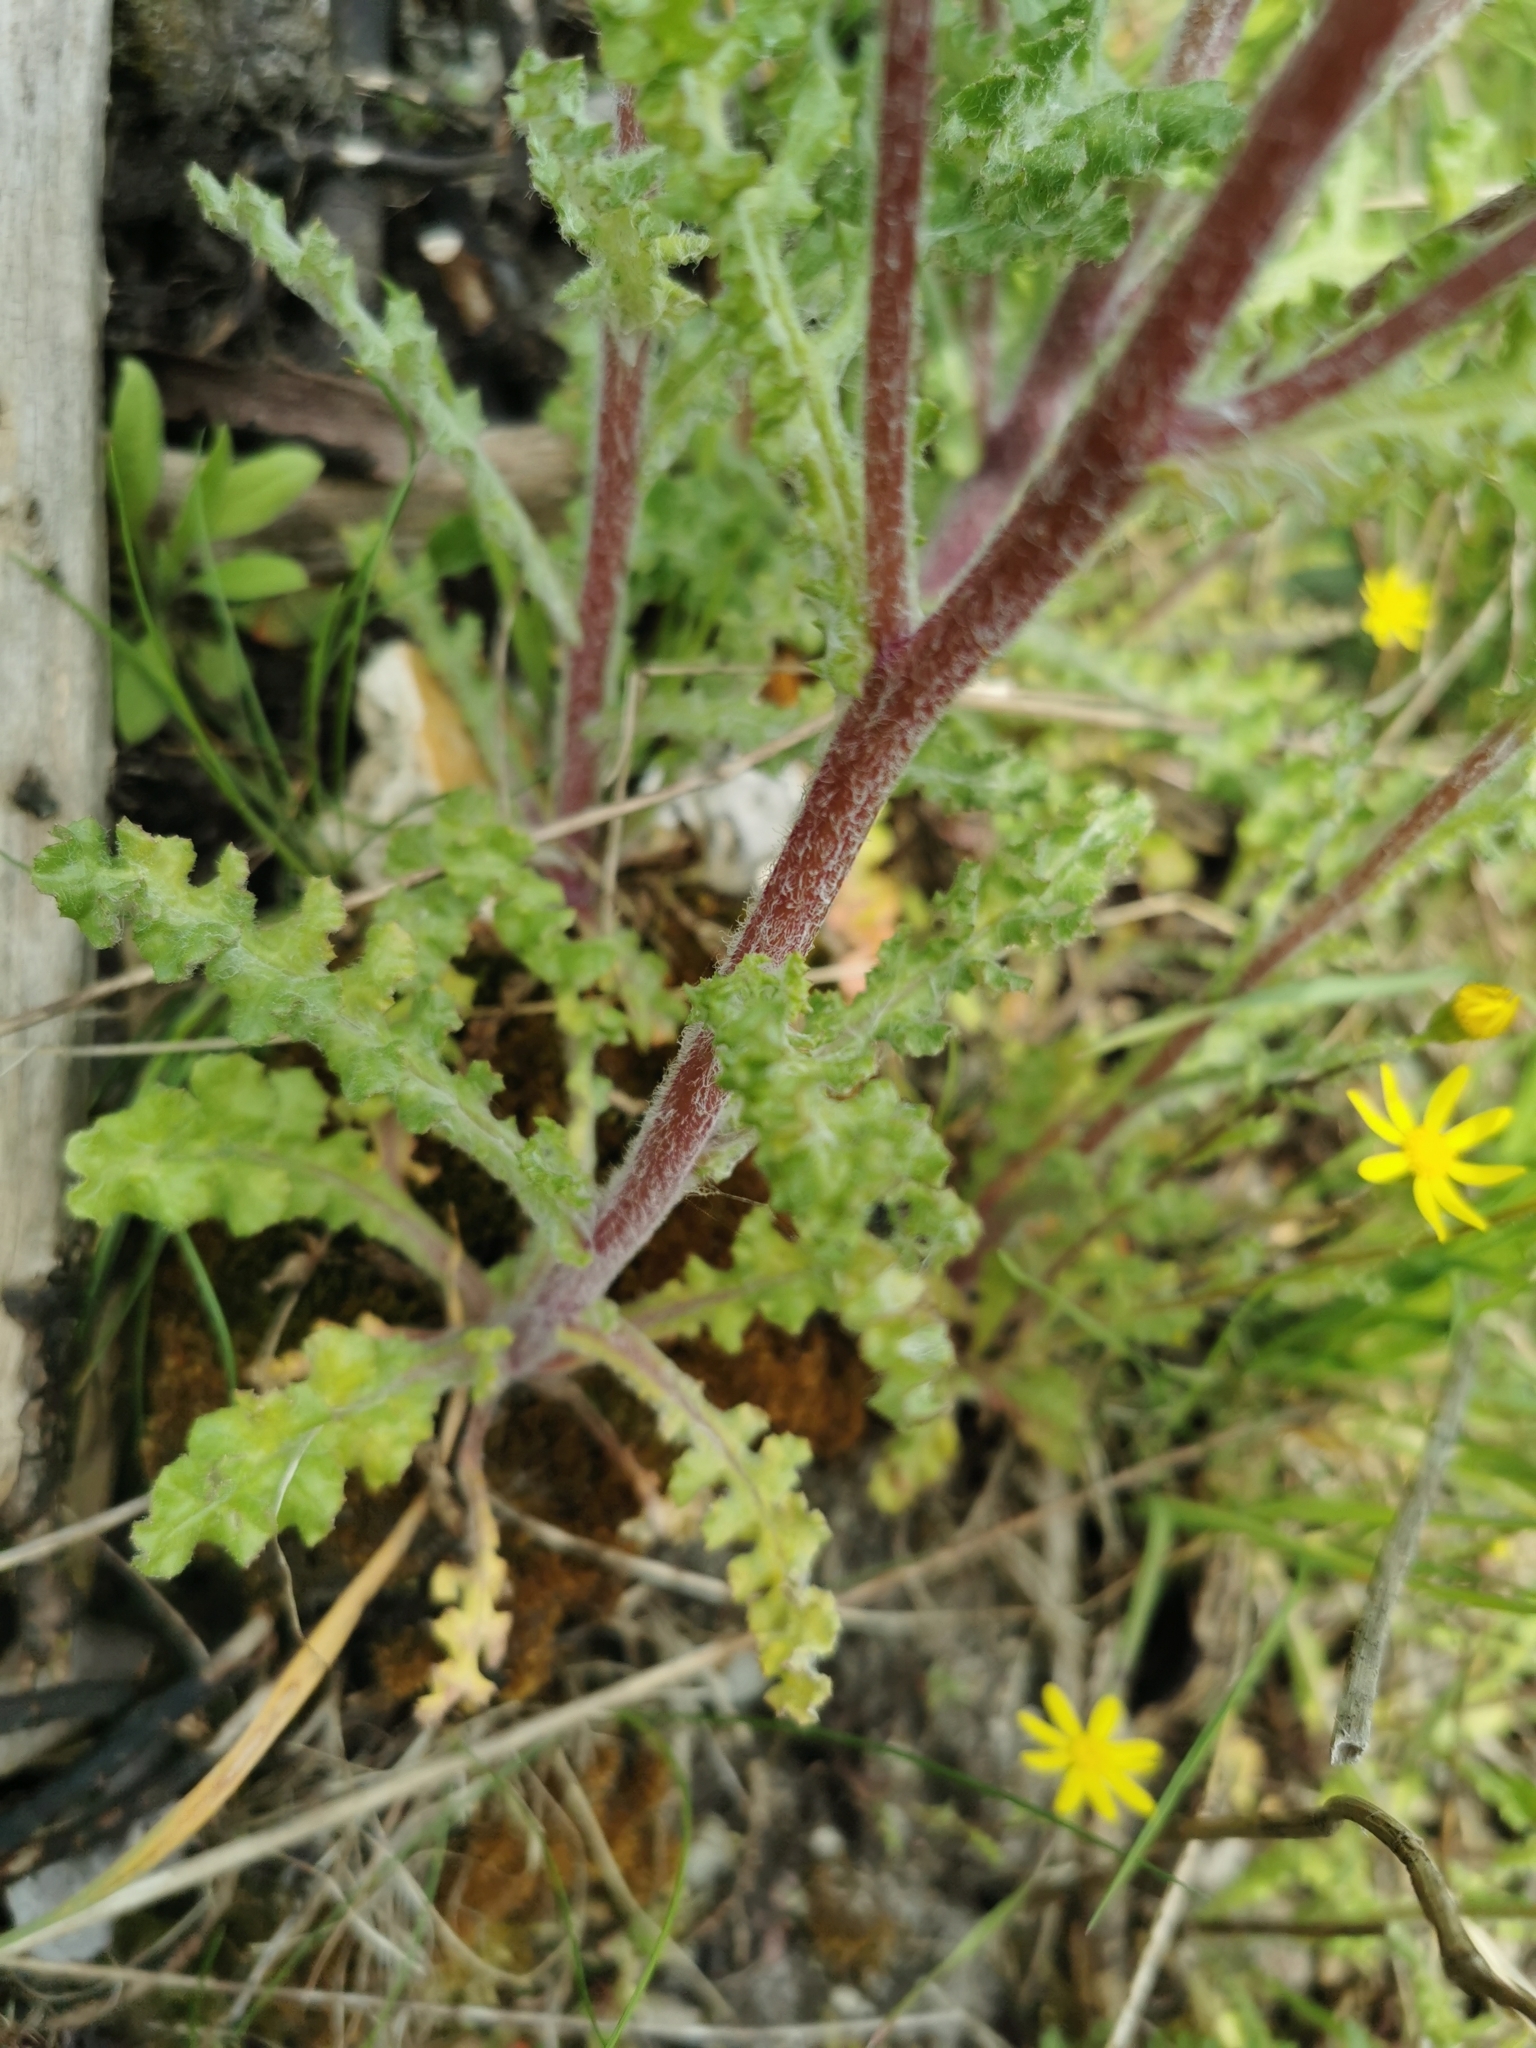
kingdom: Plantae
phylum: Tracheophyta
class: Magnoliopsida
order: Asterales
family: Asteraceae
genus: Senecio
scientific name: Senecio vernalis
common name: Eastern groundsel
